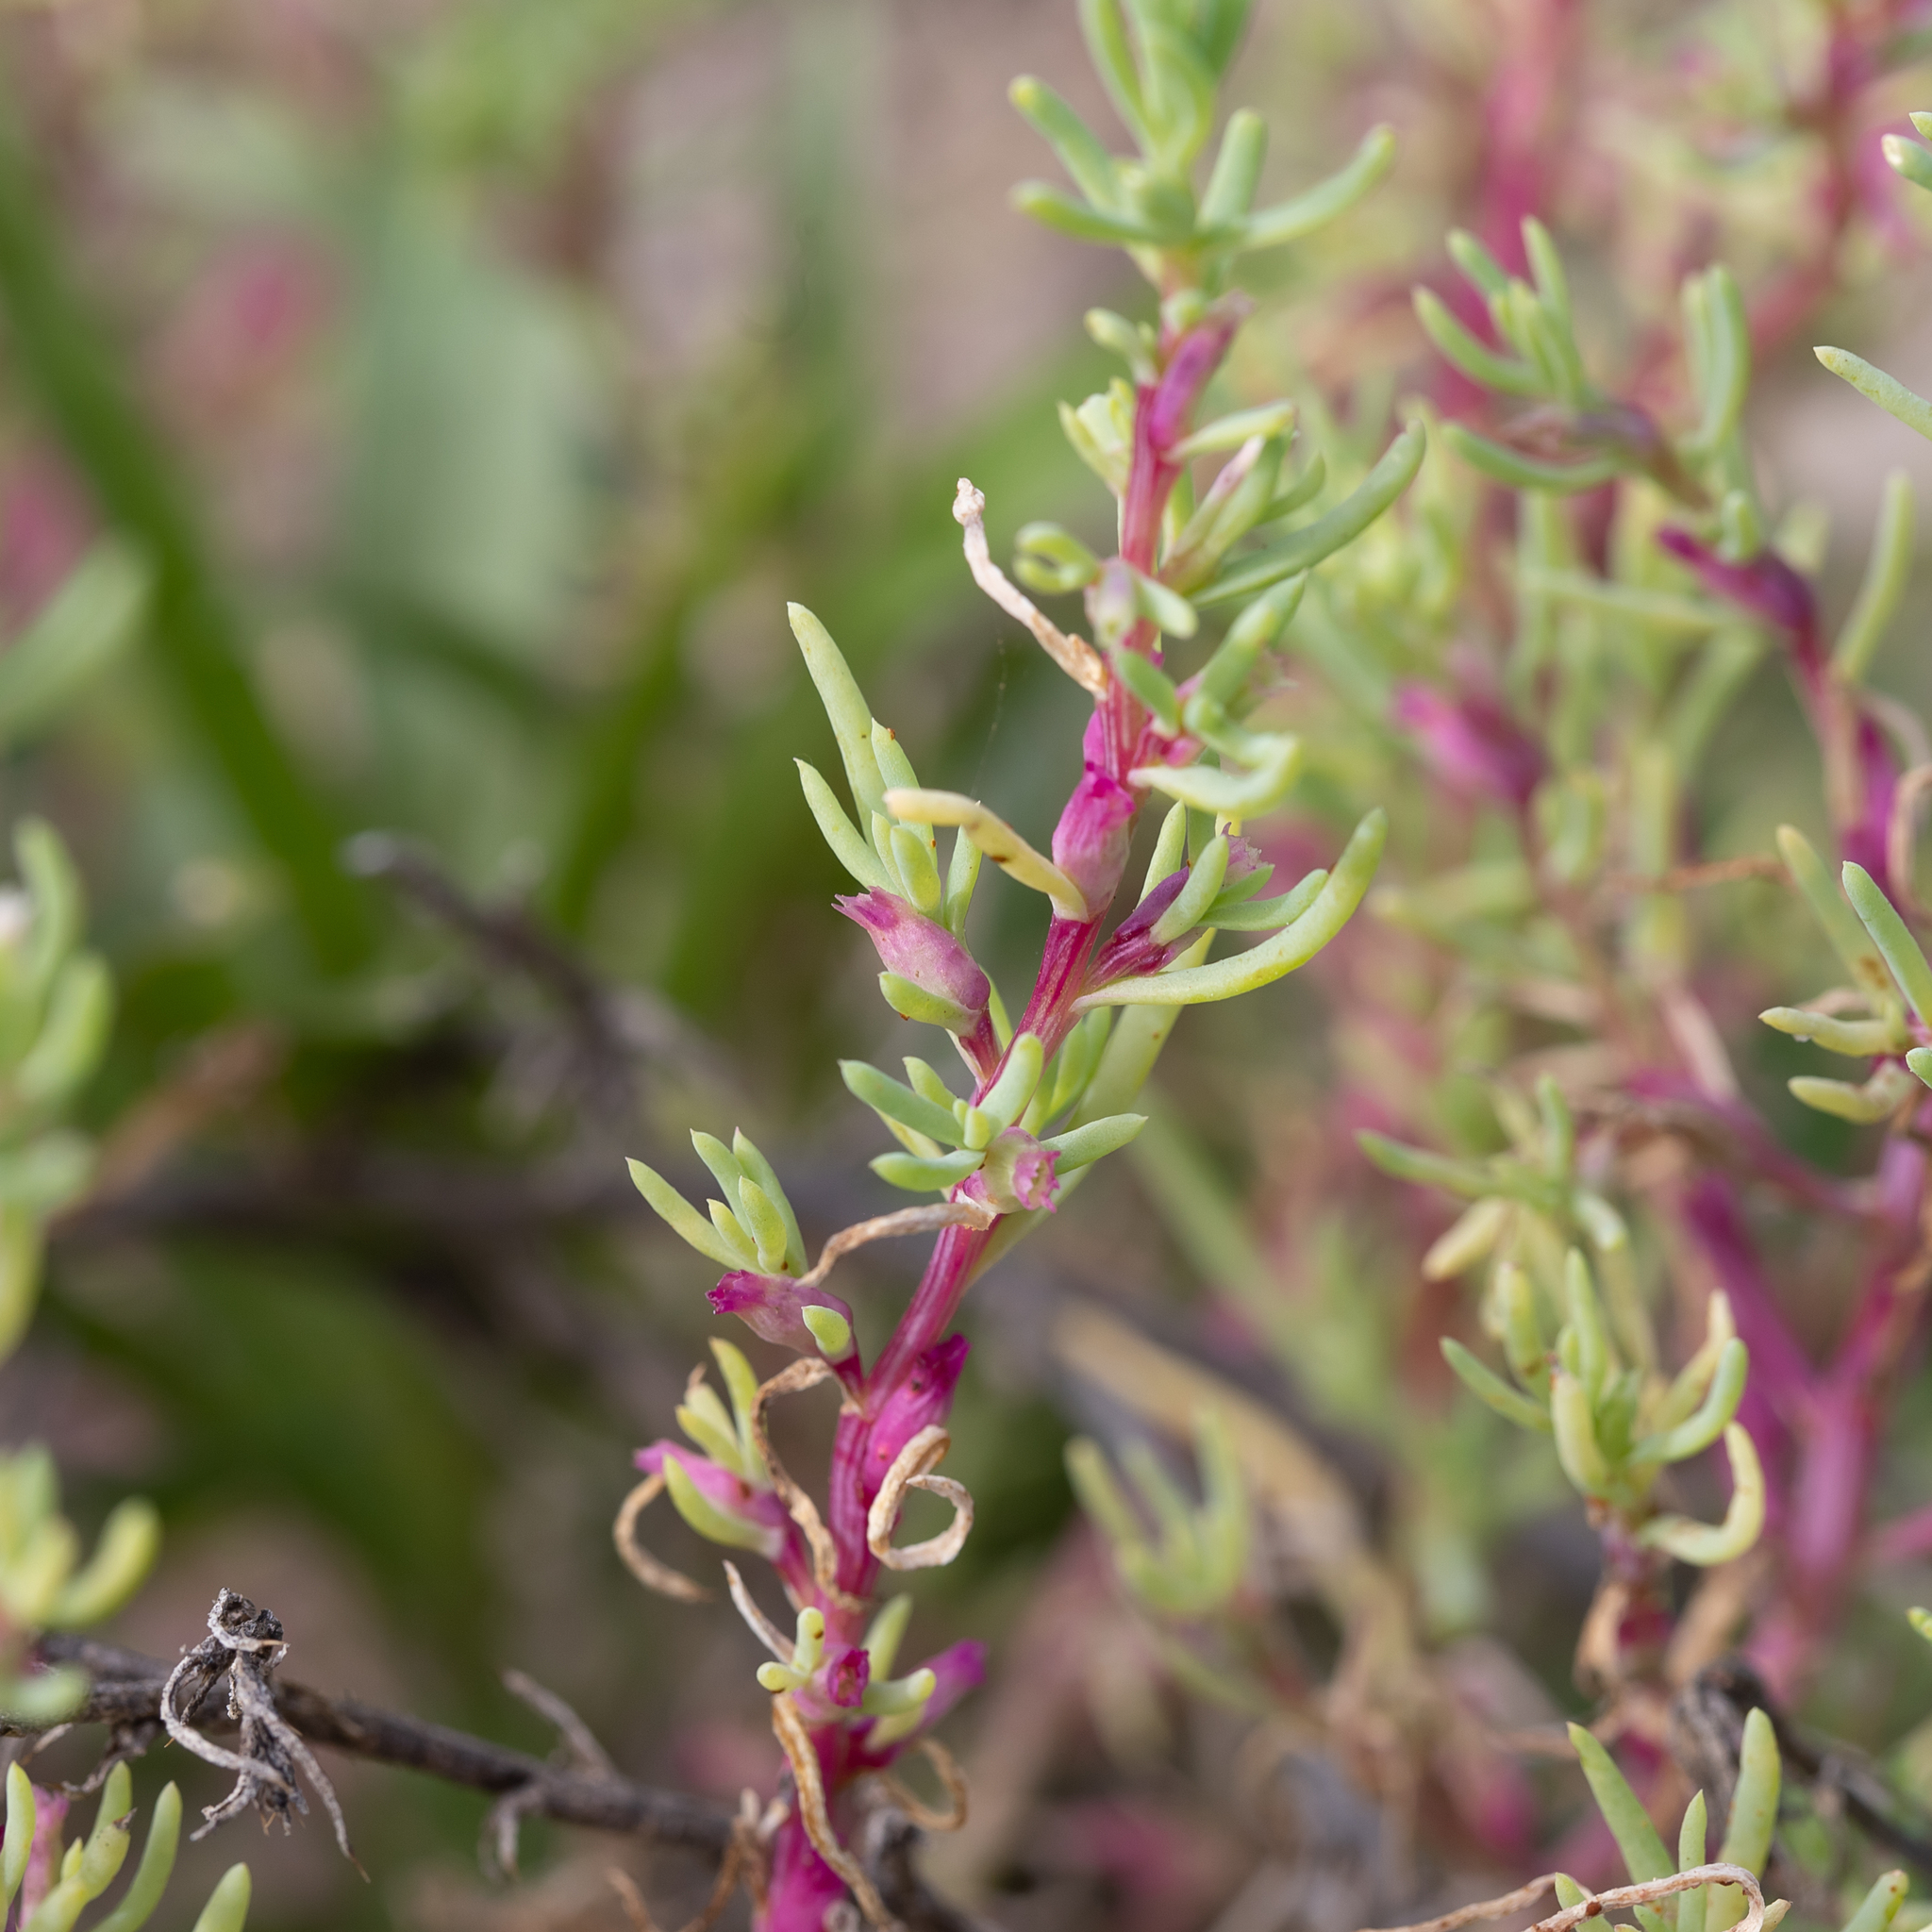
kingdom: Plantae
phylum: Tracheophyta
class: Magnoliopsida
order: Caryophyllales
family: Amaranthaceae
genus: Neobassia
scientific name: Neobassia proceriflora
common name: Desert-glasswort
